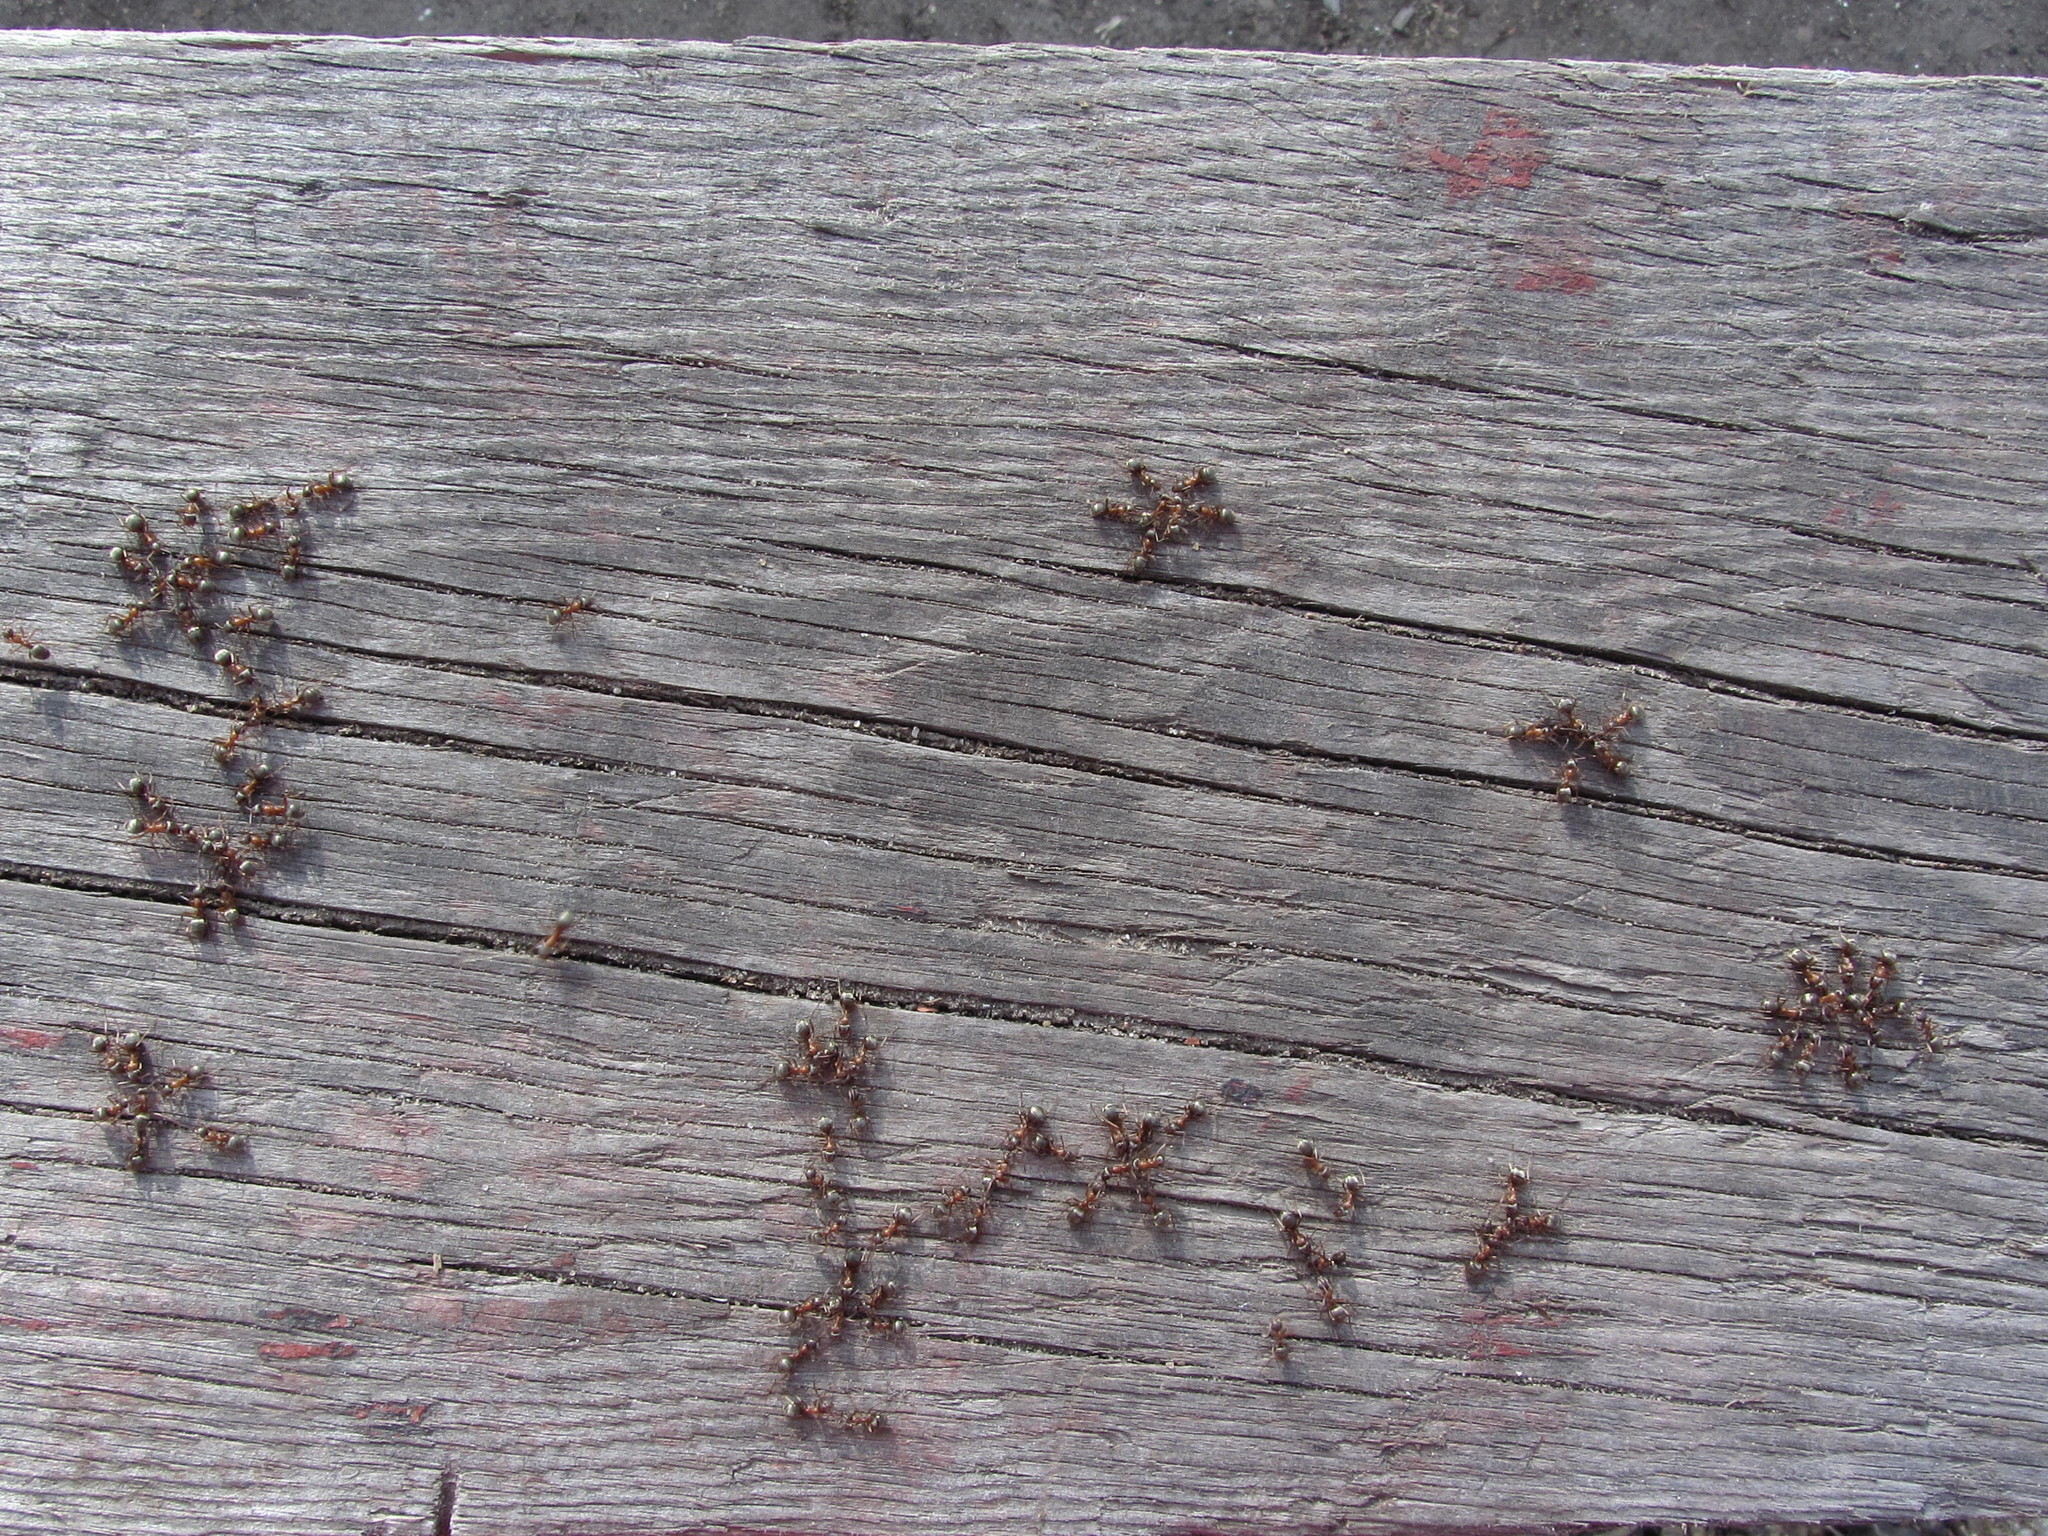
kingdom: Animalia
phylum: Arthropoda
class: Insecta
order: Hymenoptera
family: Formicidae
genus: Formica
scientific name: Formica cinerea
